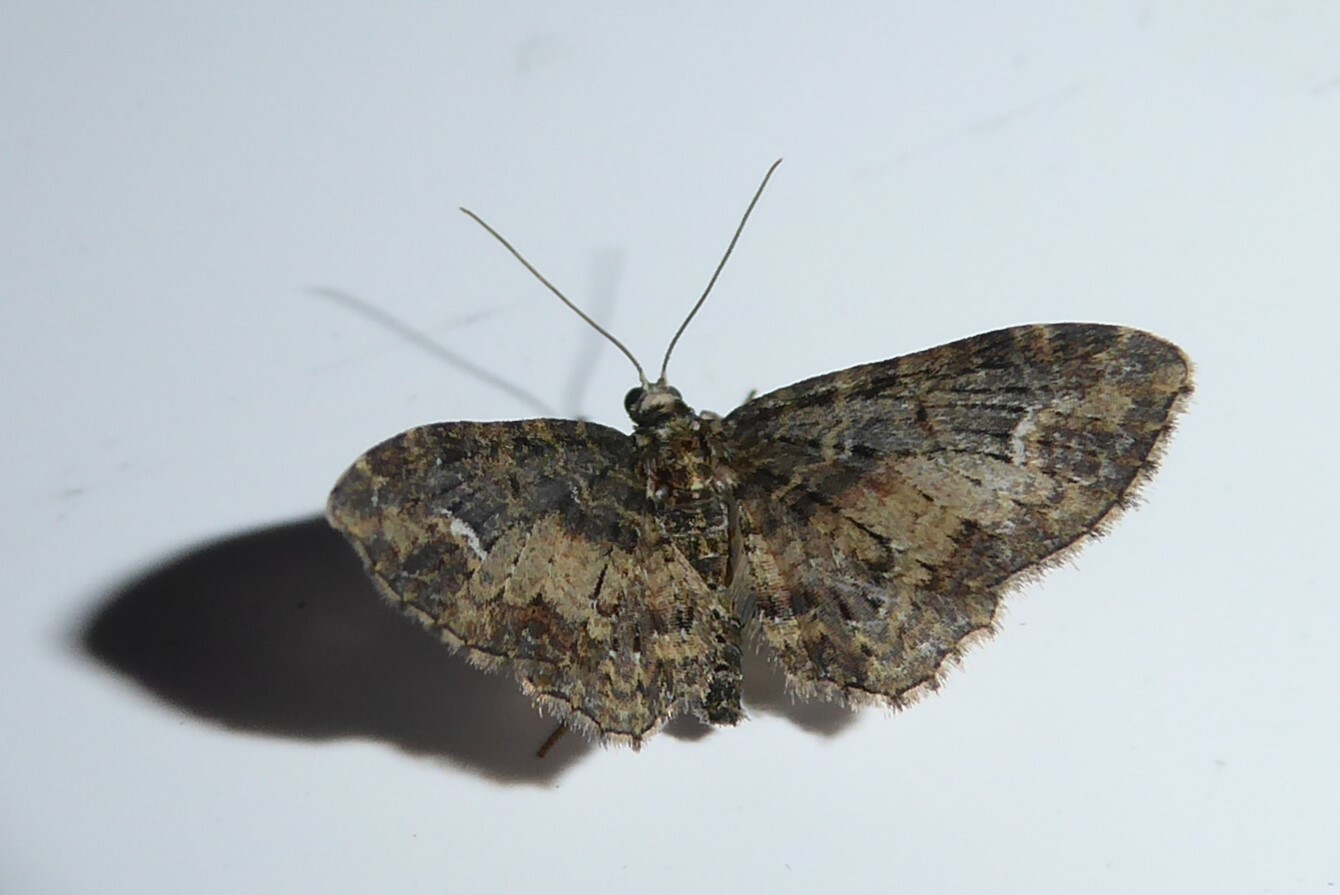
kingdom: Animalia
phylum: Arthropoda
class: Insecta
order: Lepidoptera
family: Geometridae
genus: Pasiphilodes
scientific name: Pasiphilodes testulata
